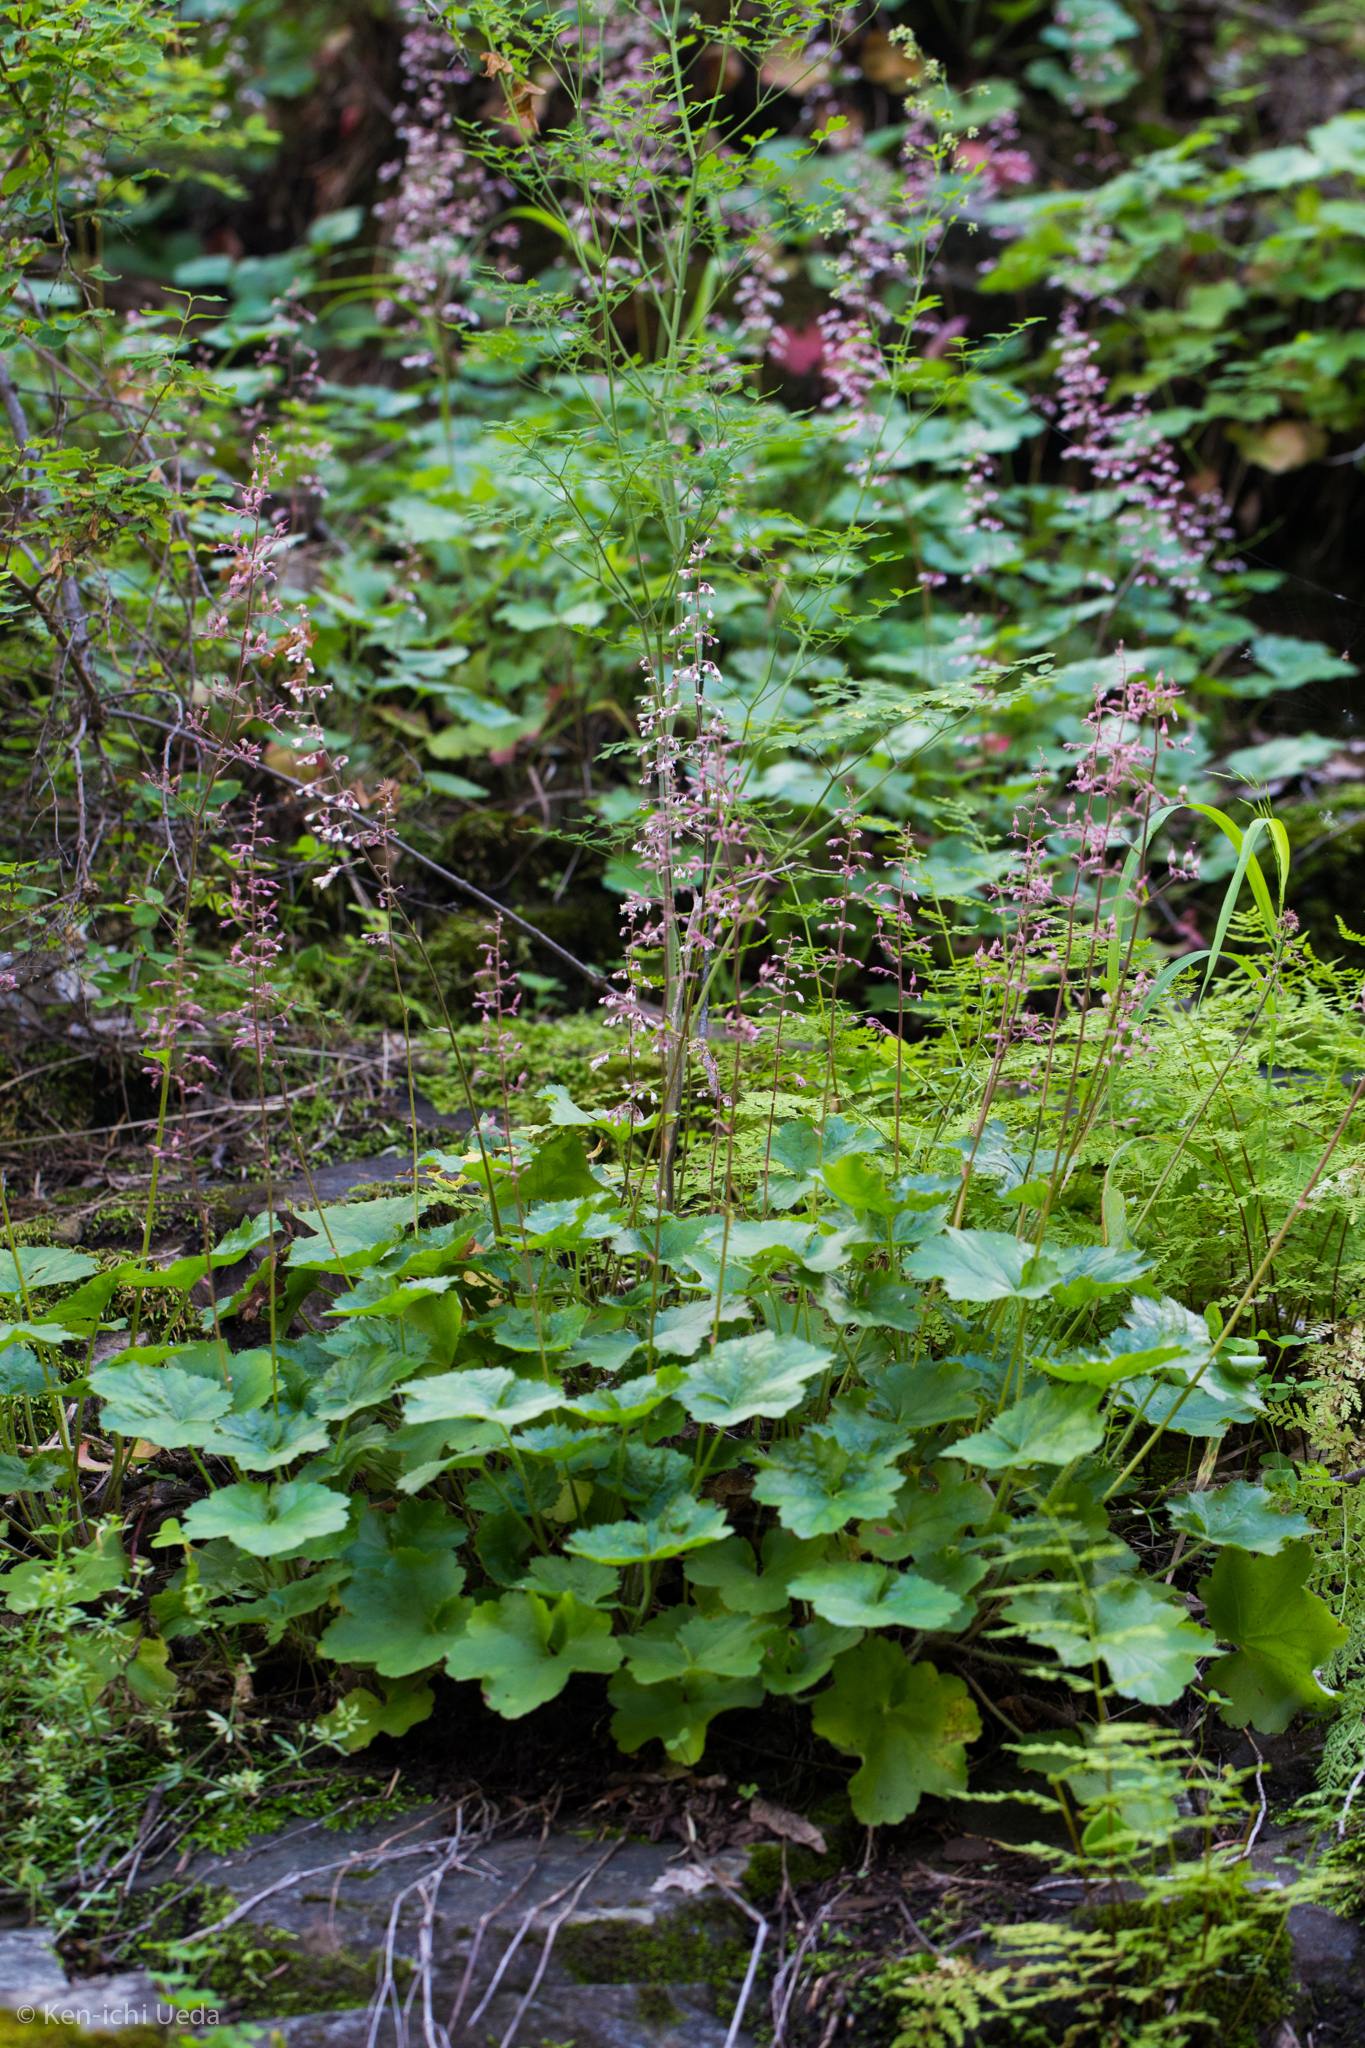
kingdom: Plantae
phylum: Tracheophyta
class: Magnoliopsida
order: Saxifragales
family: Saxifragaceae
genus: Heuchera
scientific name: Heuchera rubescens
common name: Jack-o'the-rocks
